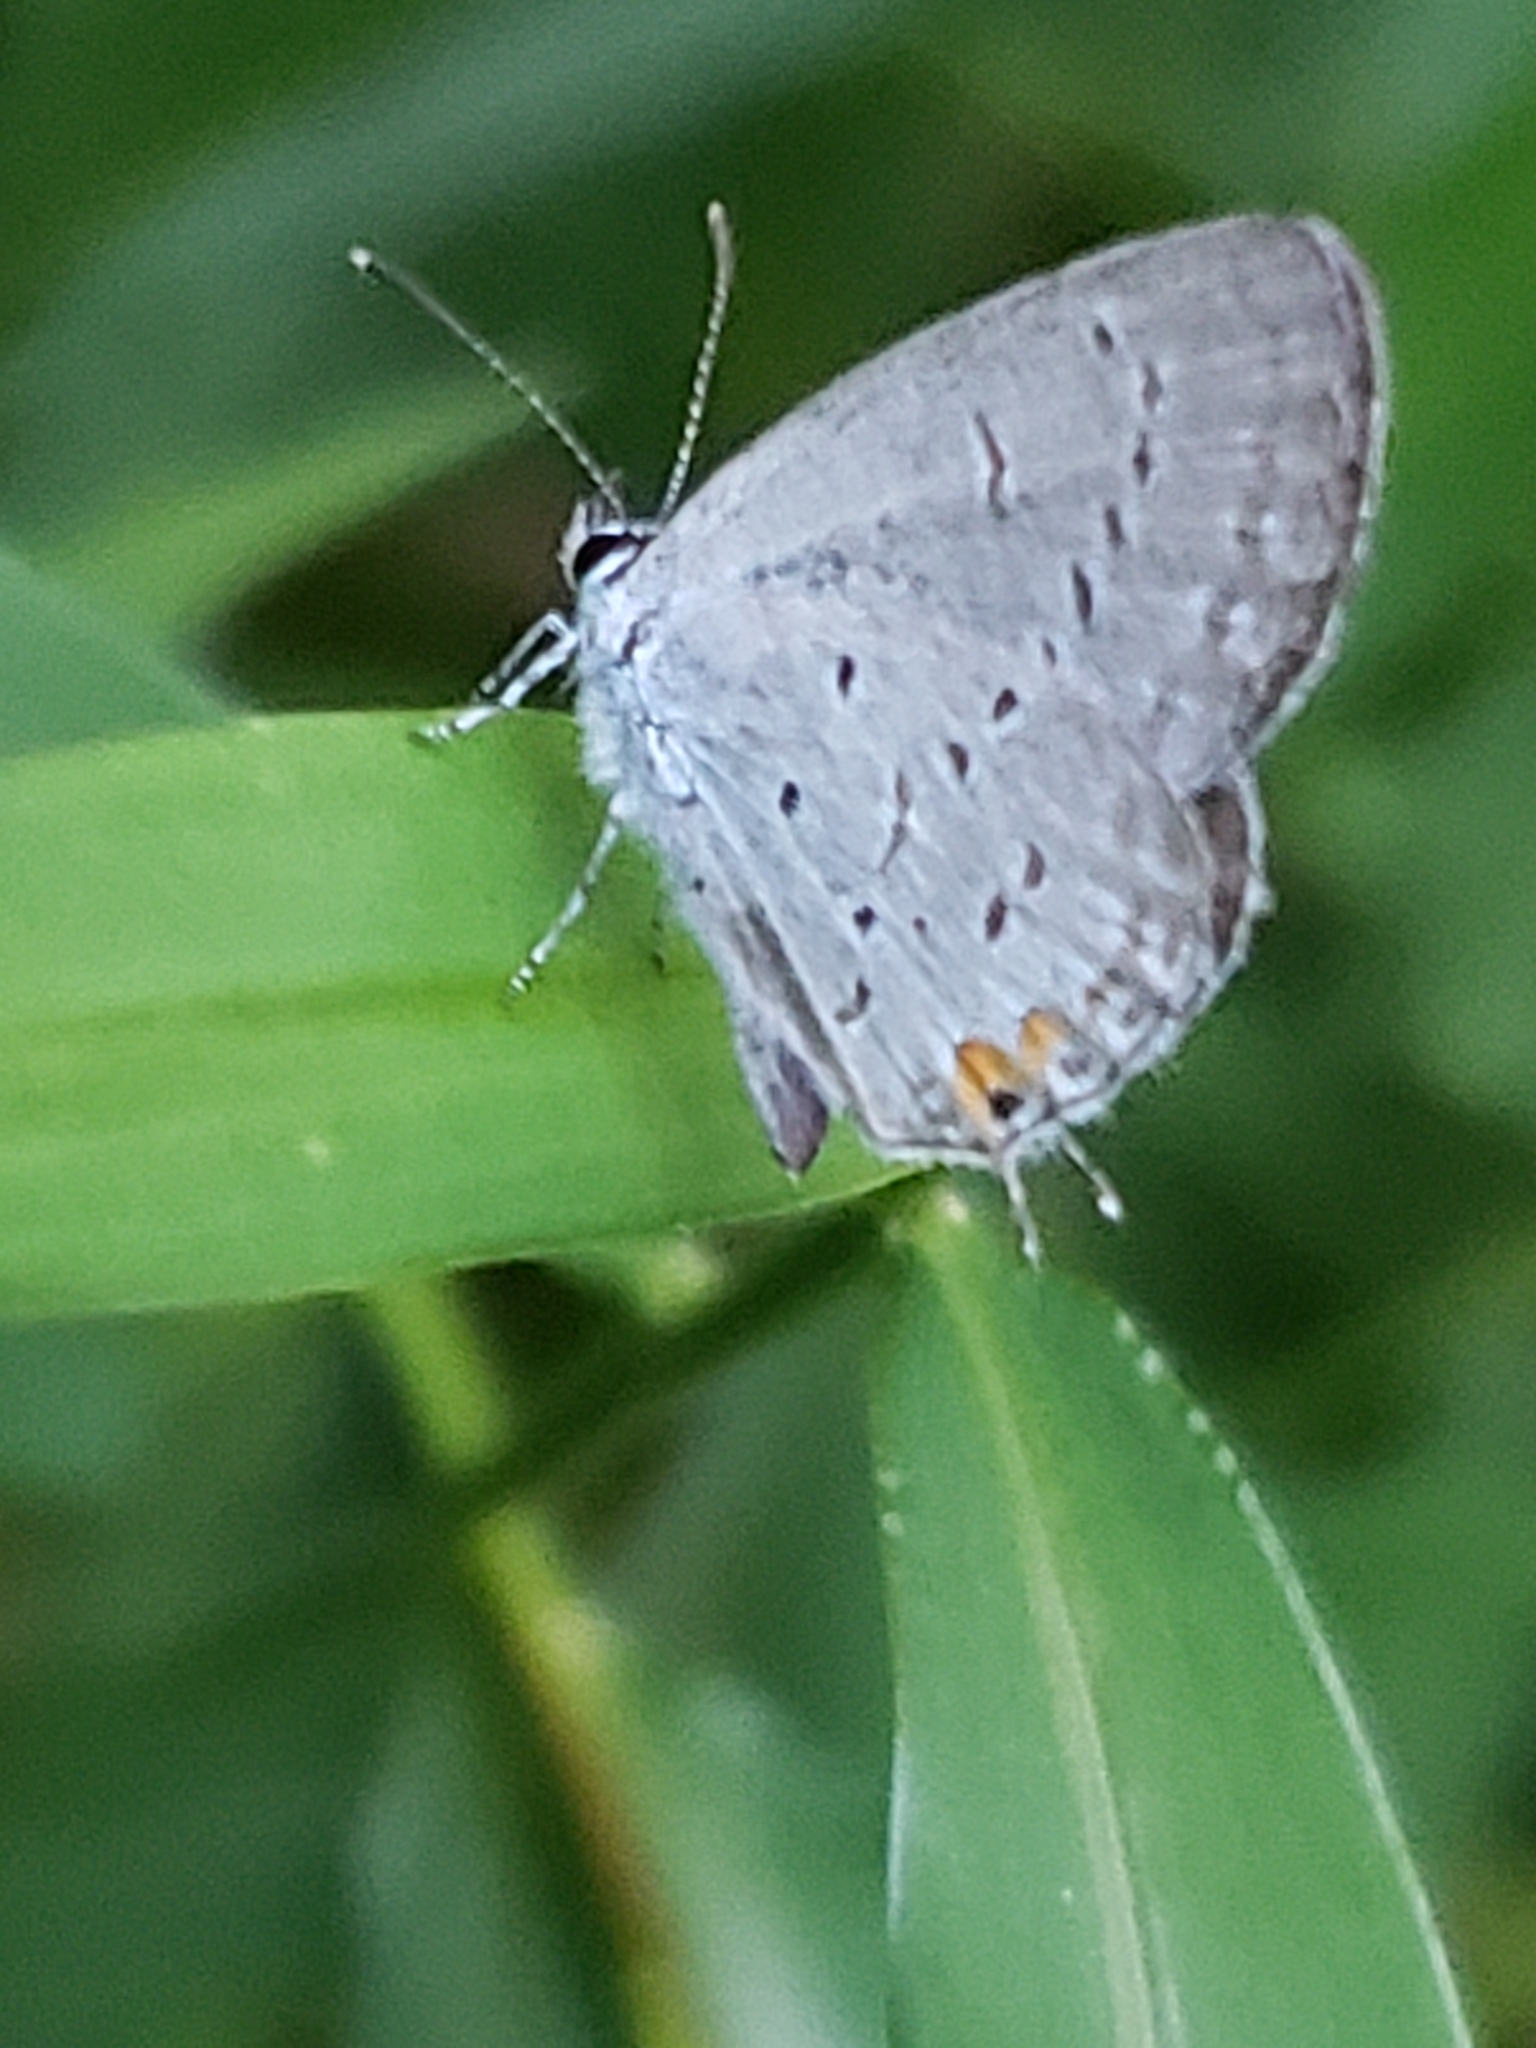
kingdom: Animalia
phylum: Arthropoda
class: Insecta
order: Lepidoptera
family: Lycaenidae
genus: Elkalyce
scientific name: Elkalyce comyntas
